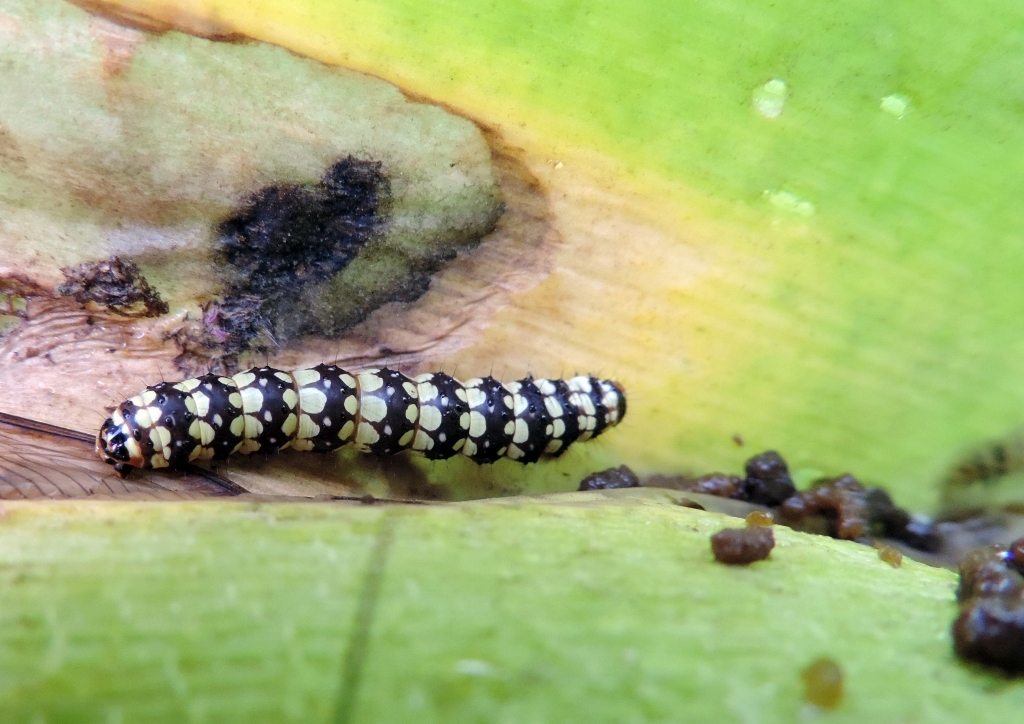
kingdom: Animalia
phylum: Arthropoda
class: Insecta
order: Lepidoptera
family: Noctuidae
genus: Brithys
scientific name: Brithys crini
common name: Kew arches
